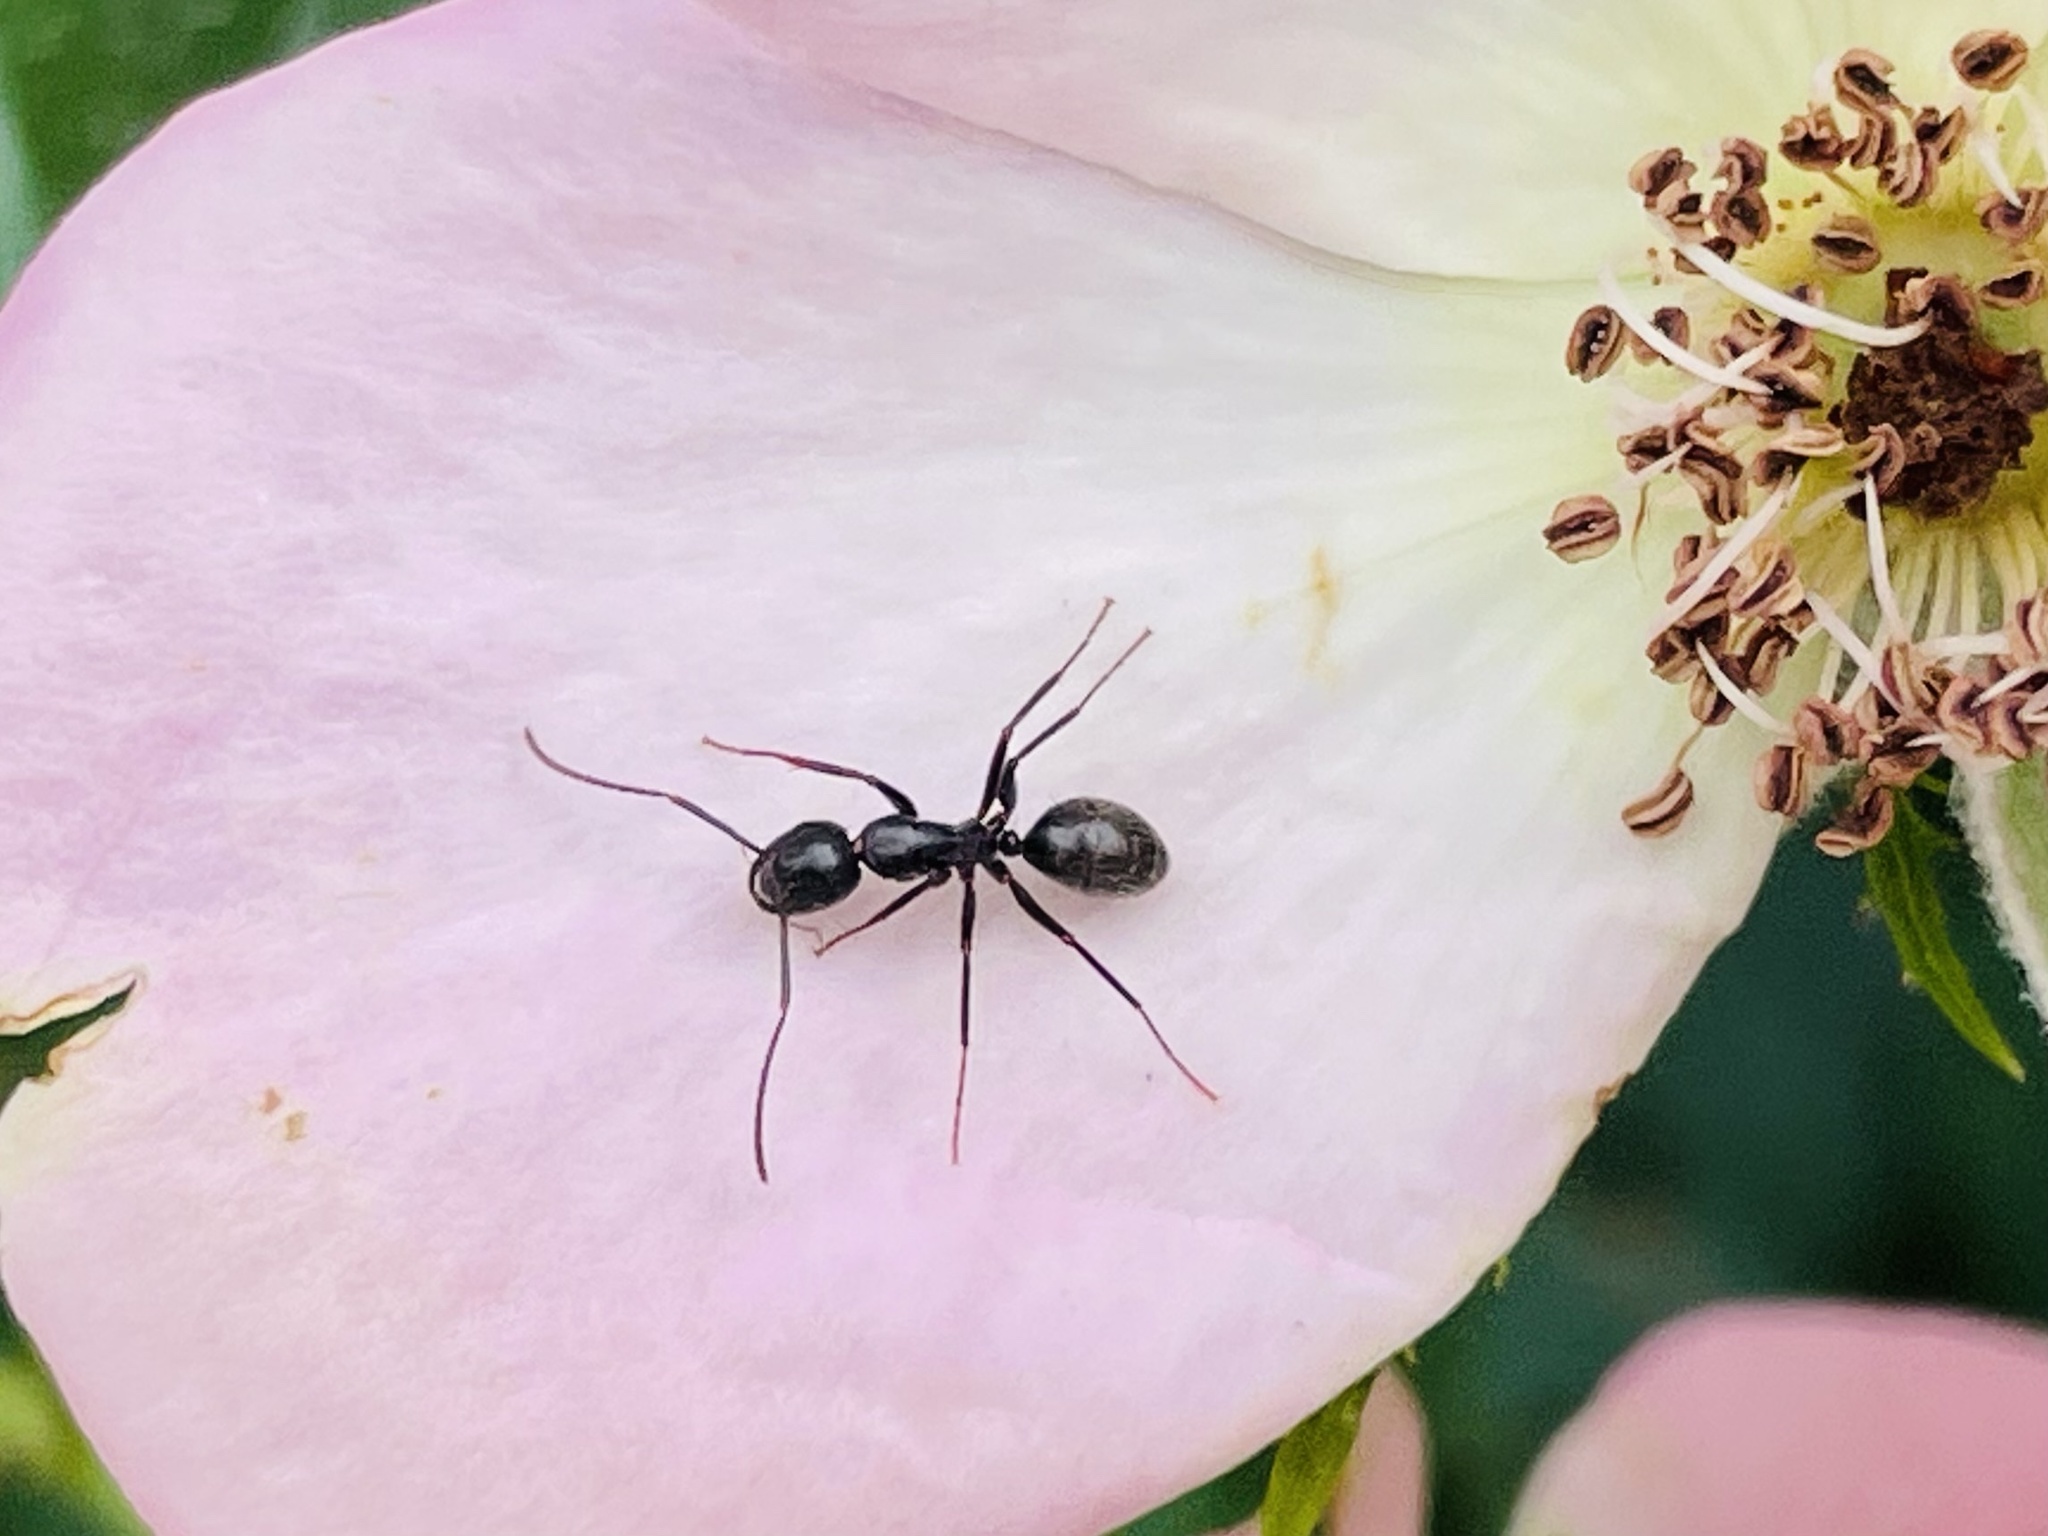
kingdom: Animalia
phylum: Arthropoda
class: Insecta
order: Hymenoptera
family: Formicidae
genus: Camponotus
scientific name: Camponotus pennsylvanicus
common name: Black carpenter ant
